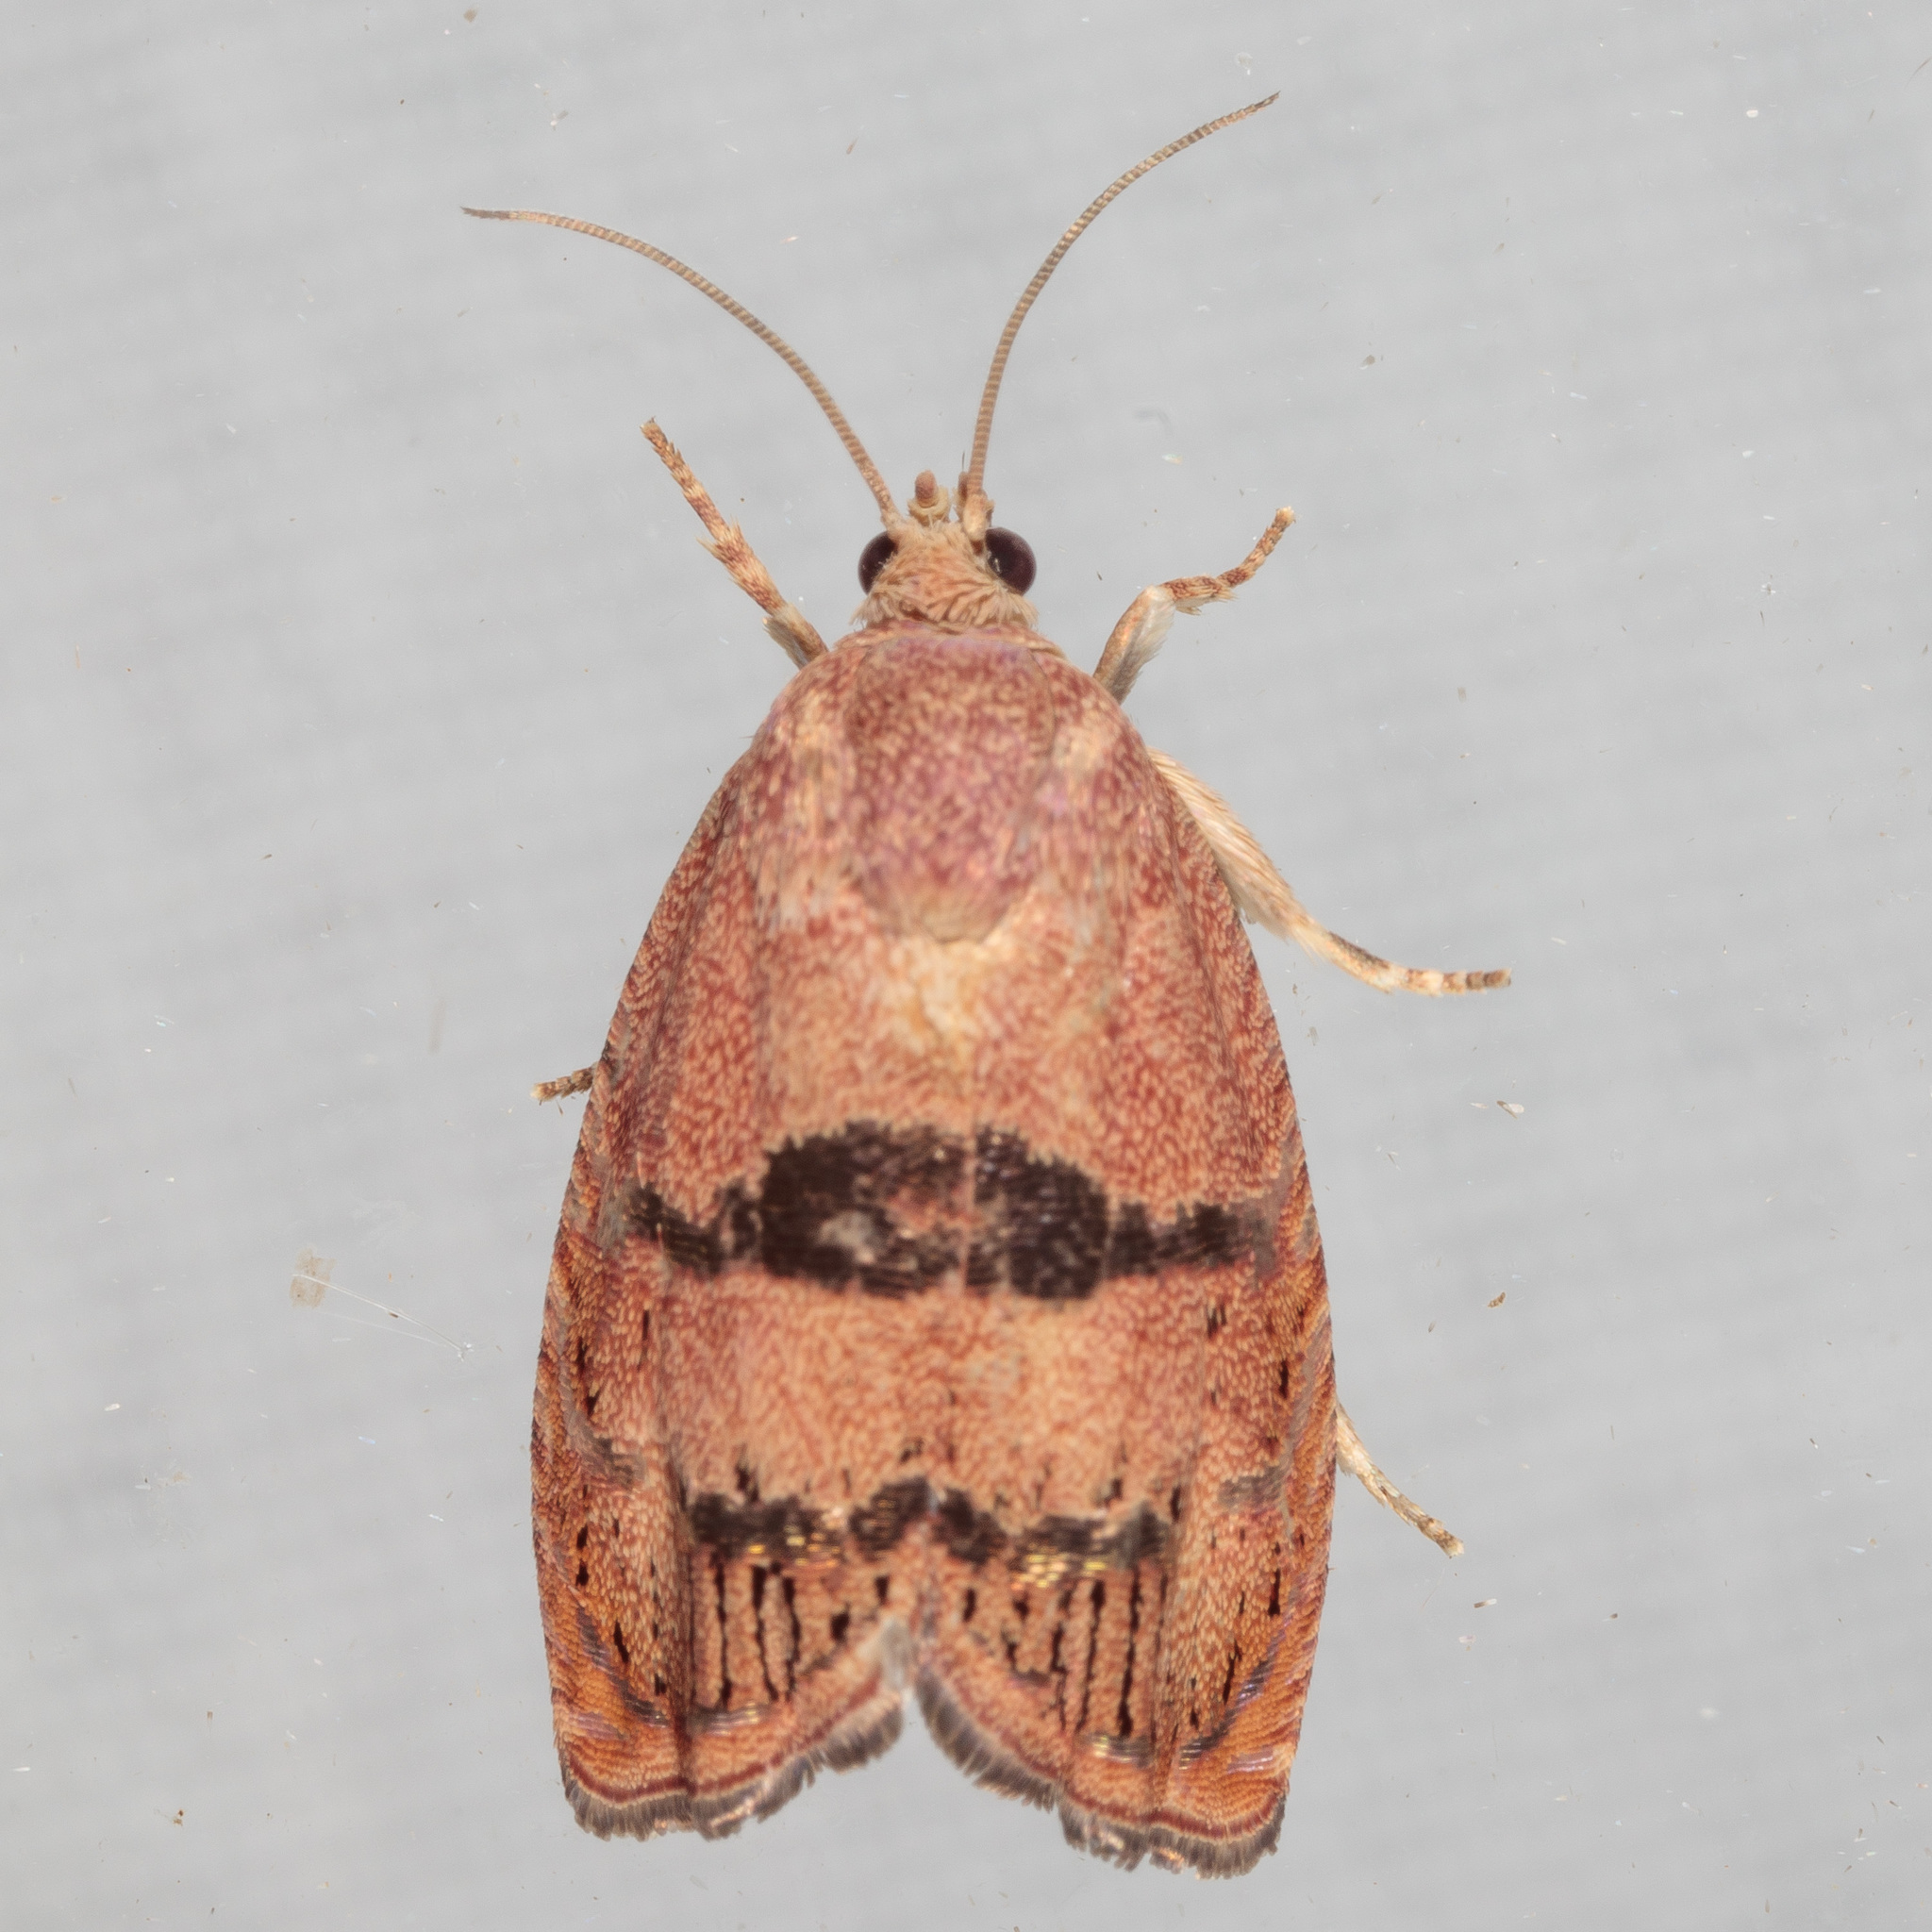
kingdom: Animalia
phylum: Arthropoda
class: Insecta
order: Lepidoptera
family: Tortricidae
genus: Cydia
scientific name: Cydia latiferreana
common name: Filbertworm moth
